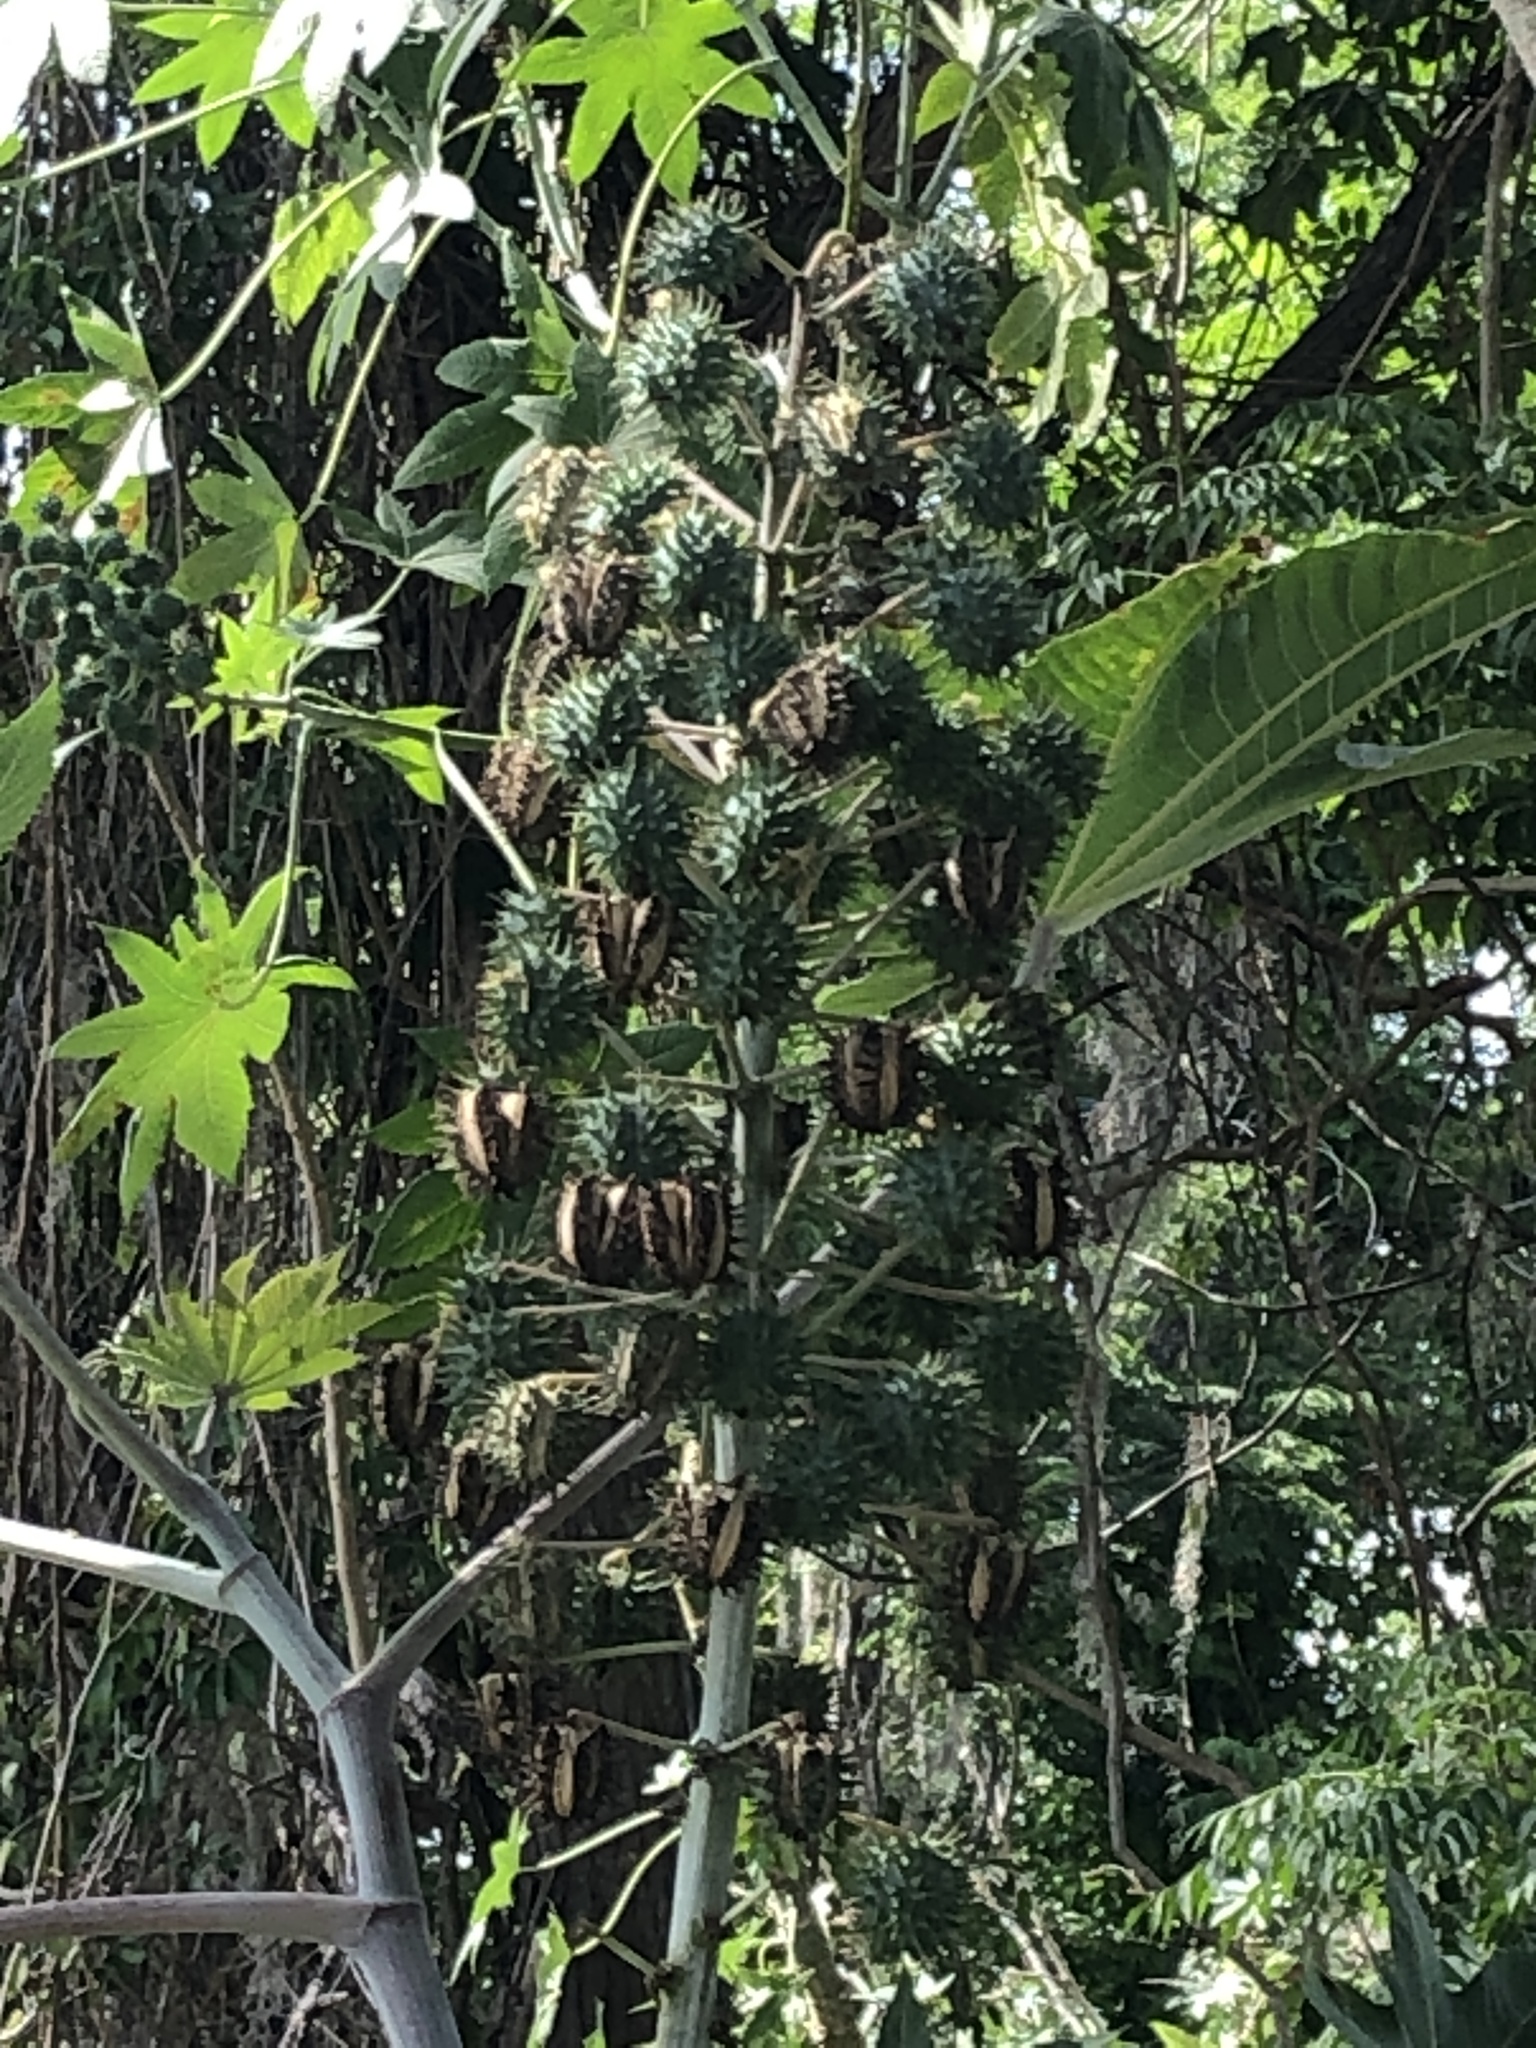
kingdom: Plantae
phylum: Tracheophyta
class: Magnoliopsida
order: Malpighiales
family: Euphorbiaceae
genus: Ricinus
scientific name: Ricinus communis
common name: Castor-oil-plant
